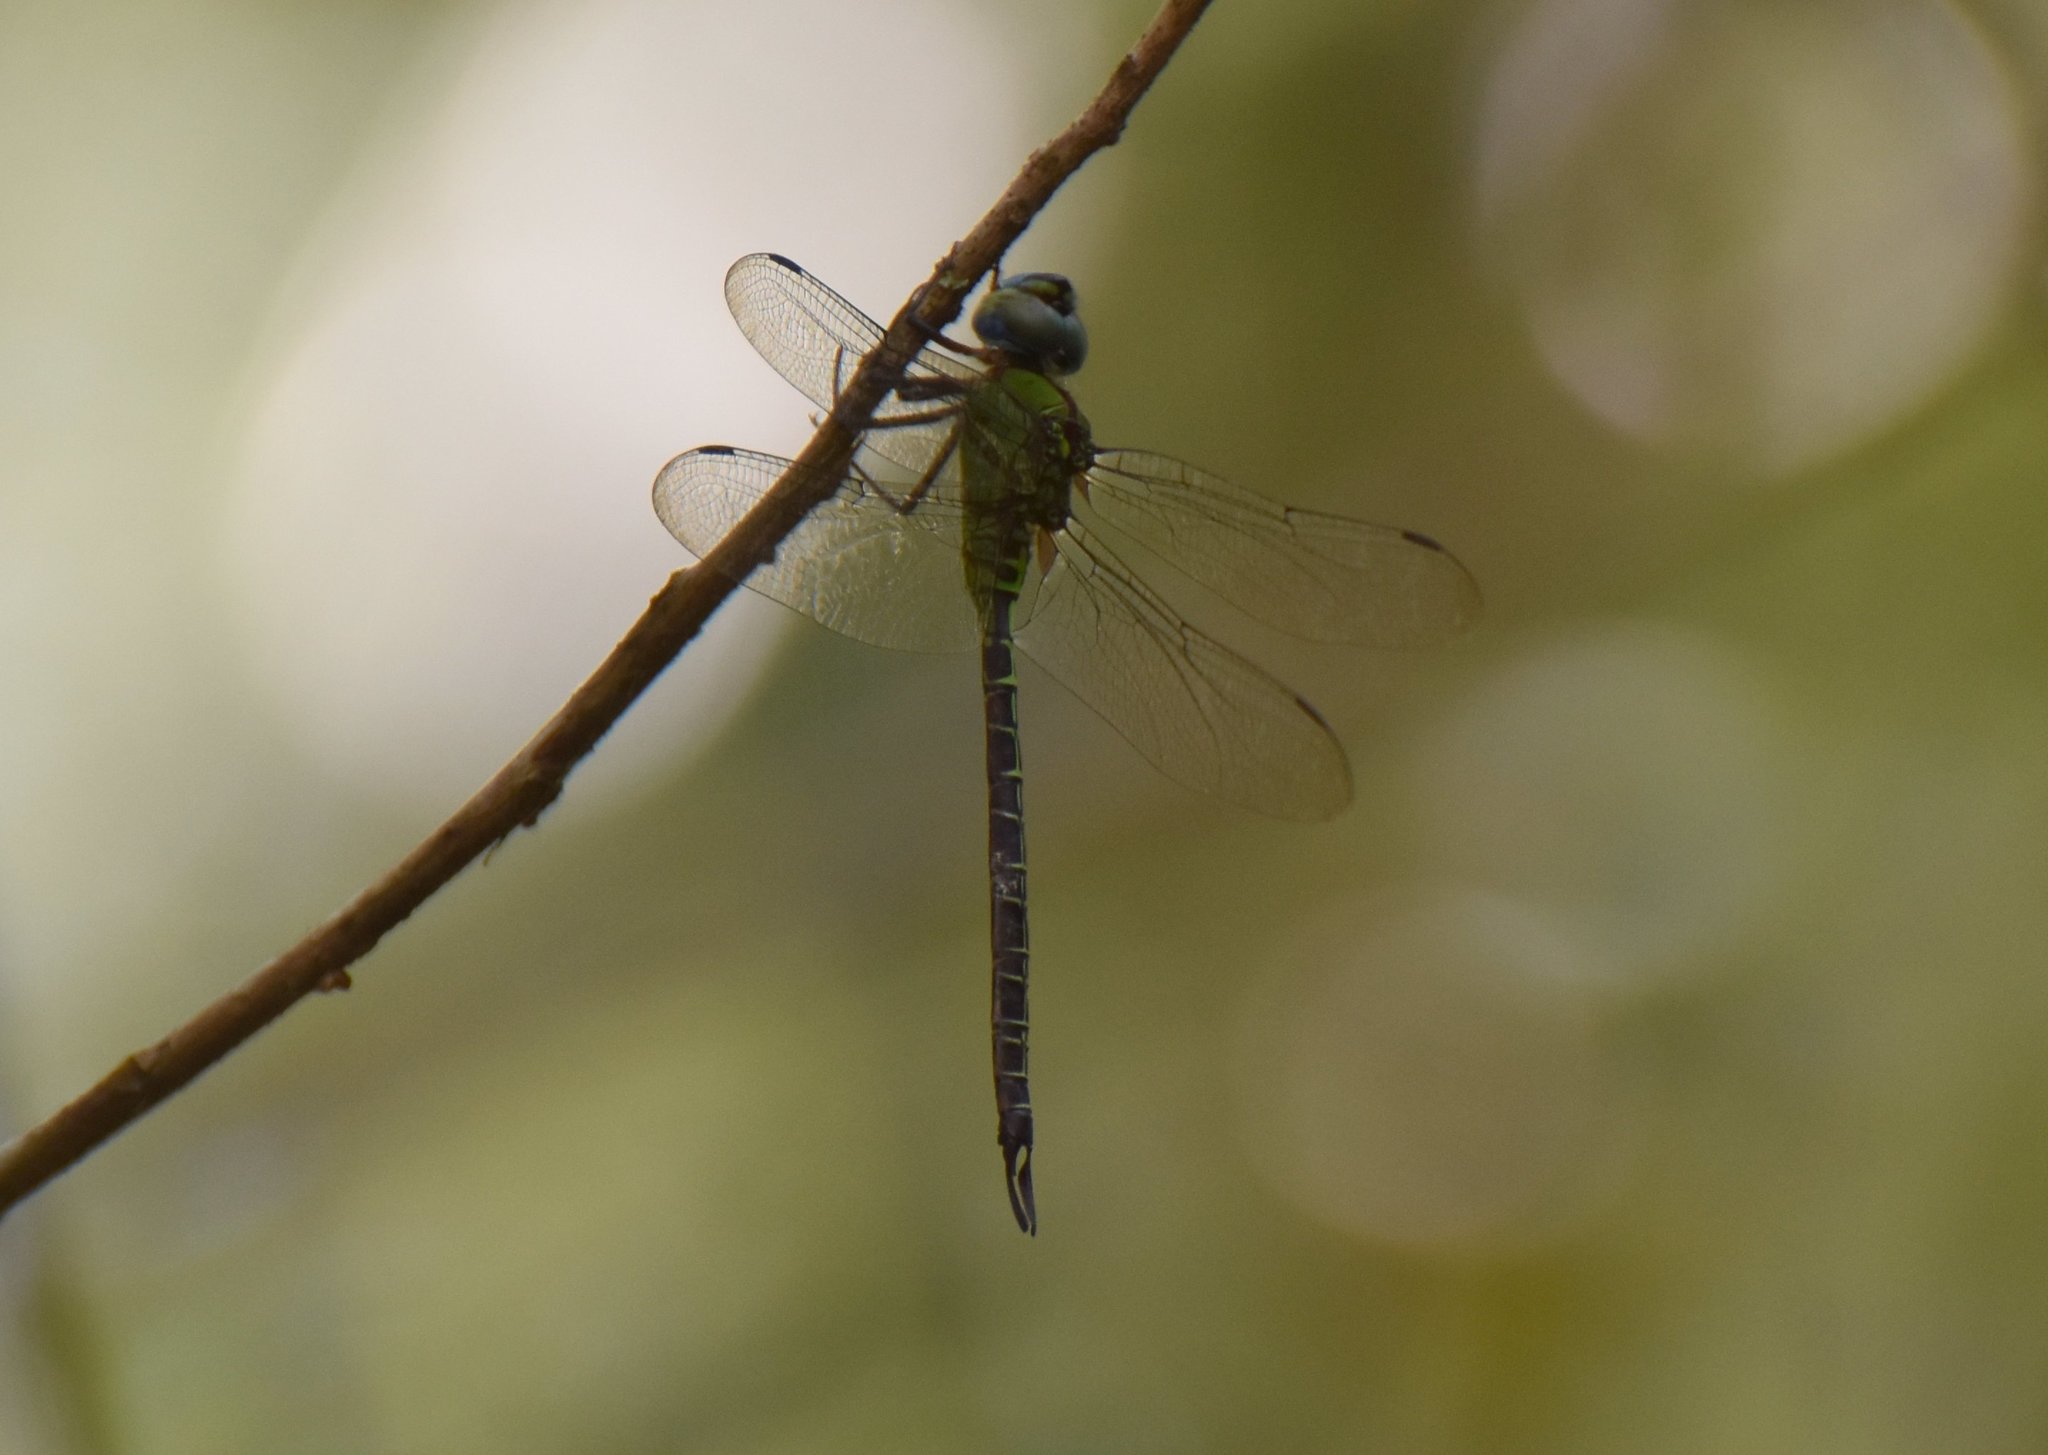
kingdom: Animalia
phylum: Arthropoda
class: Insecta
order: Odonata
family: Aeshnidae
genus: Coryphaeschna
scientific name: Coryphaeschna adnexa
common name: Blue-faced darner
